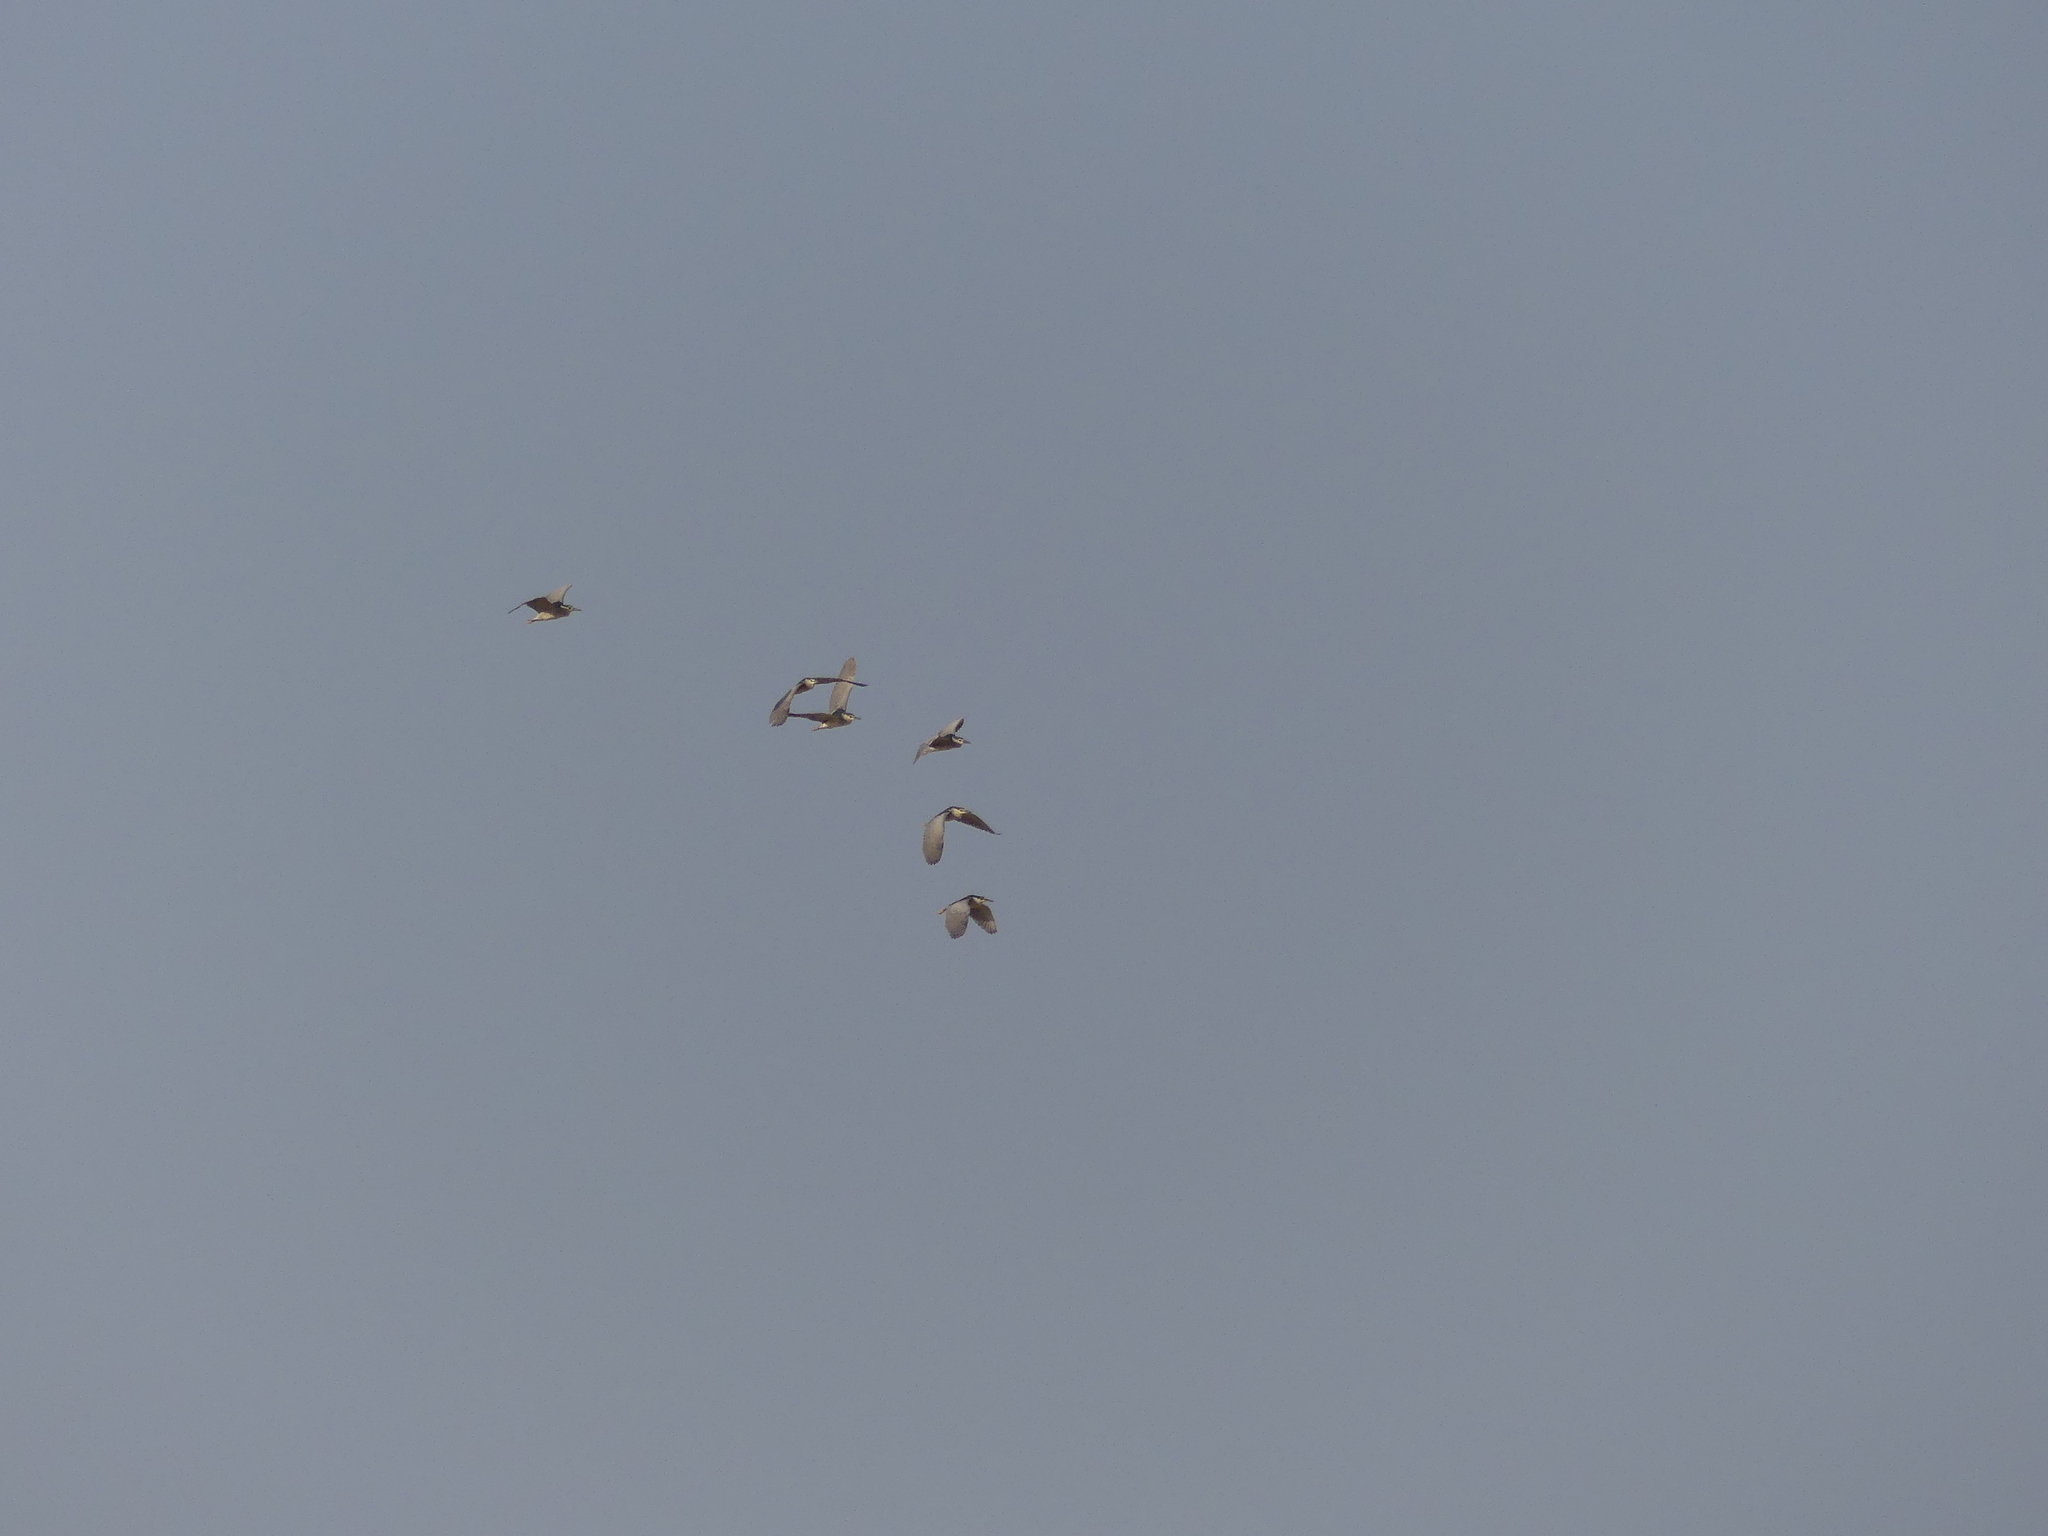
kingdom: Animalia
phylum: Chordata
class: Aves
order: Pelecaniformes
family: Ardeidae
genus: Nycticorax
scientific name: Nycticorax nycticorax
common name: Black-crowned night heron
